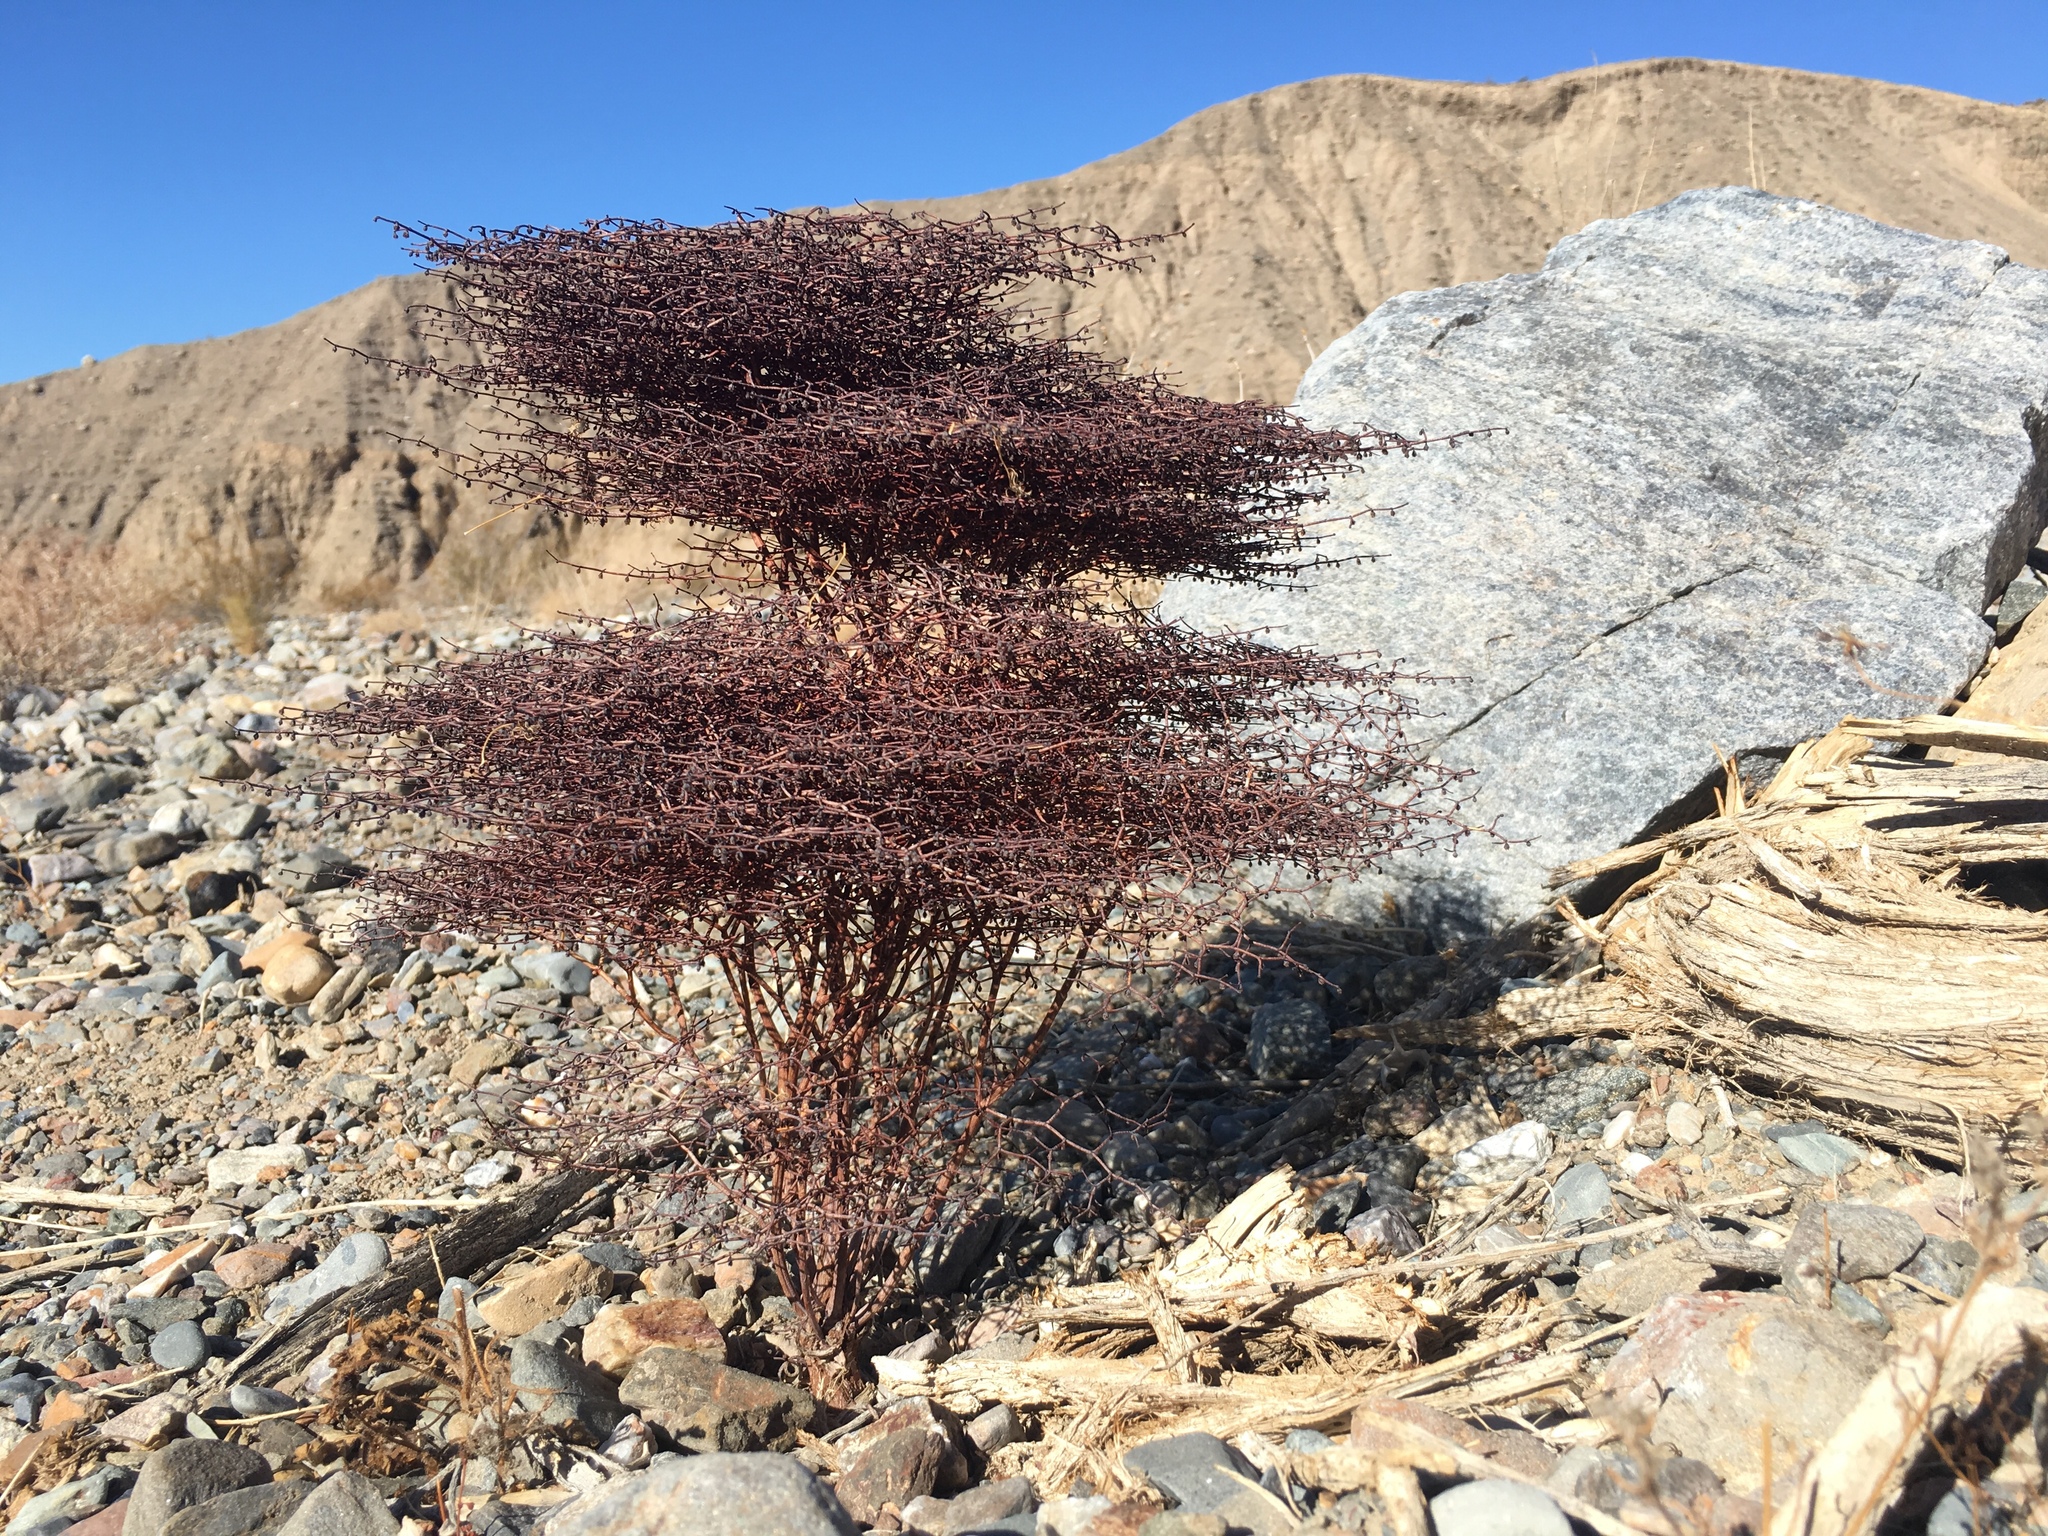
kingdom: Plantae
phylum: Tracheophyta
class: Magnoliopsida
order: Caryophyllales
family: Polygonaceae
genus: Eriogonum
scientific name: Eriogonum rixfordii
